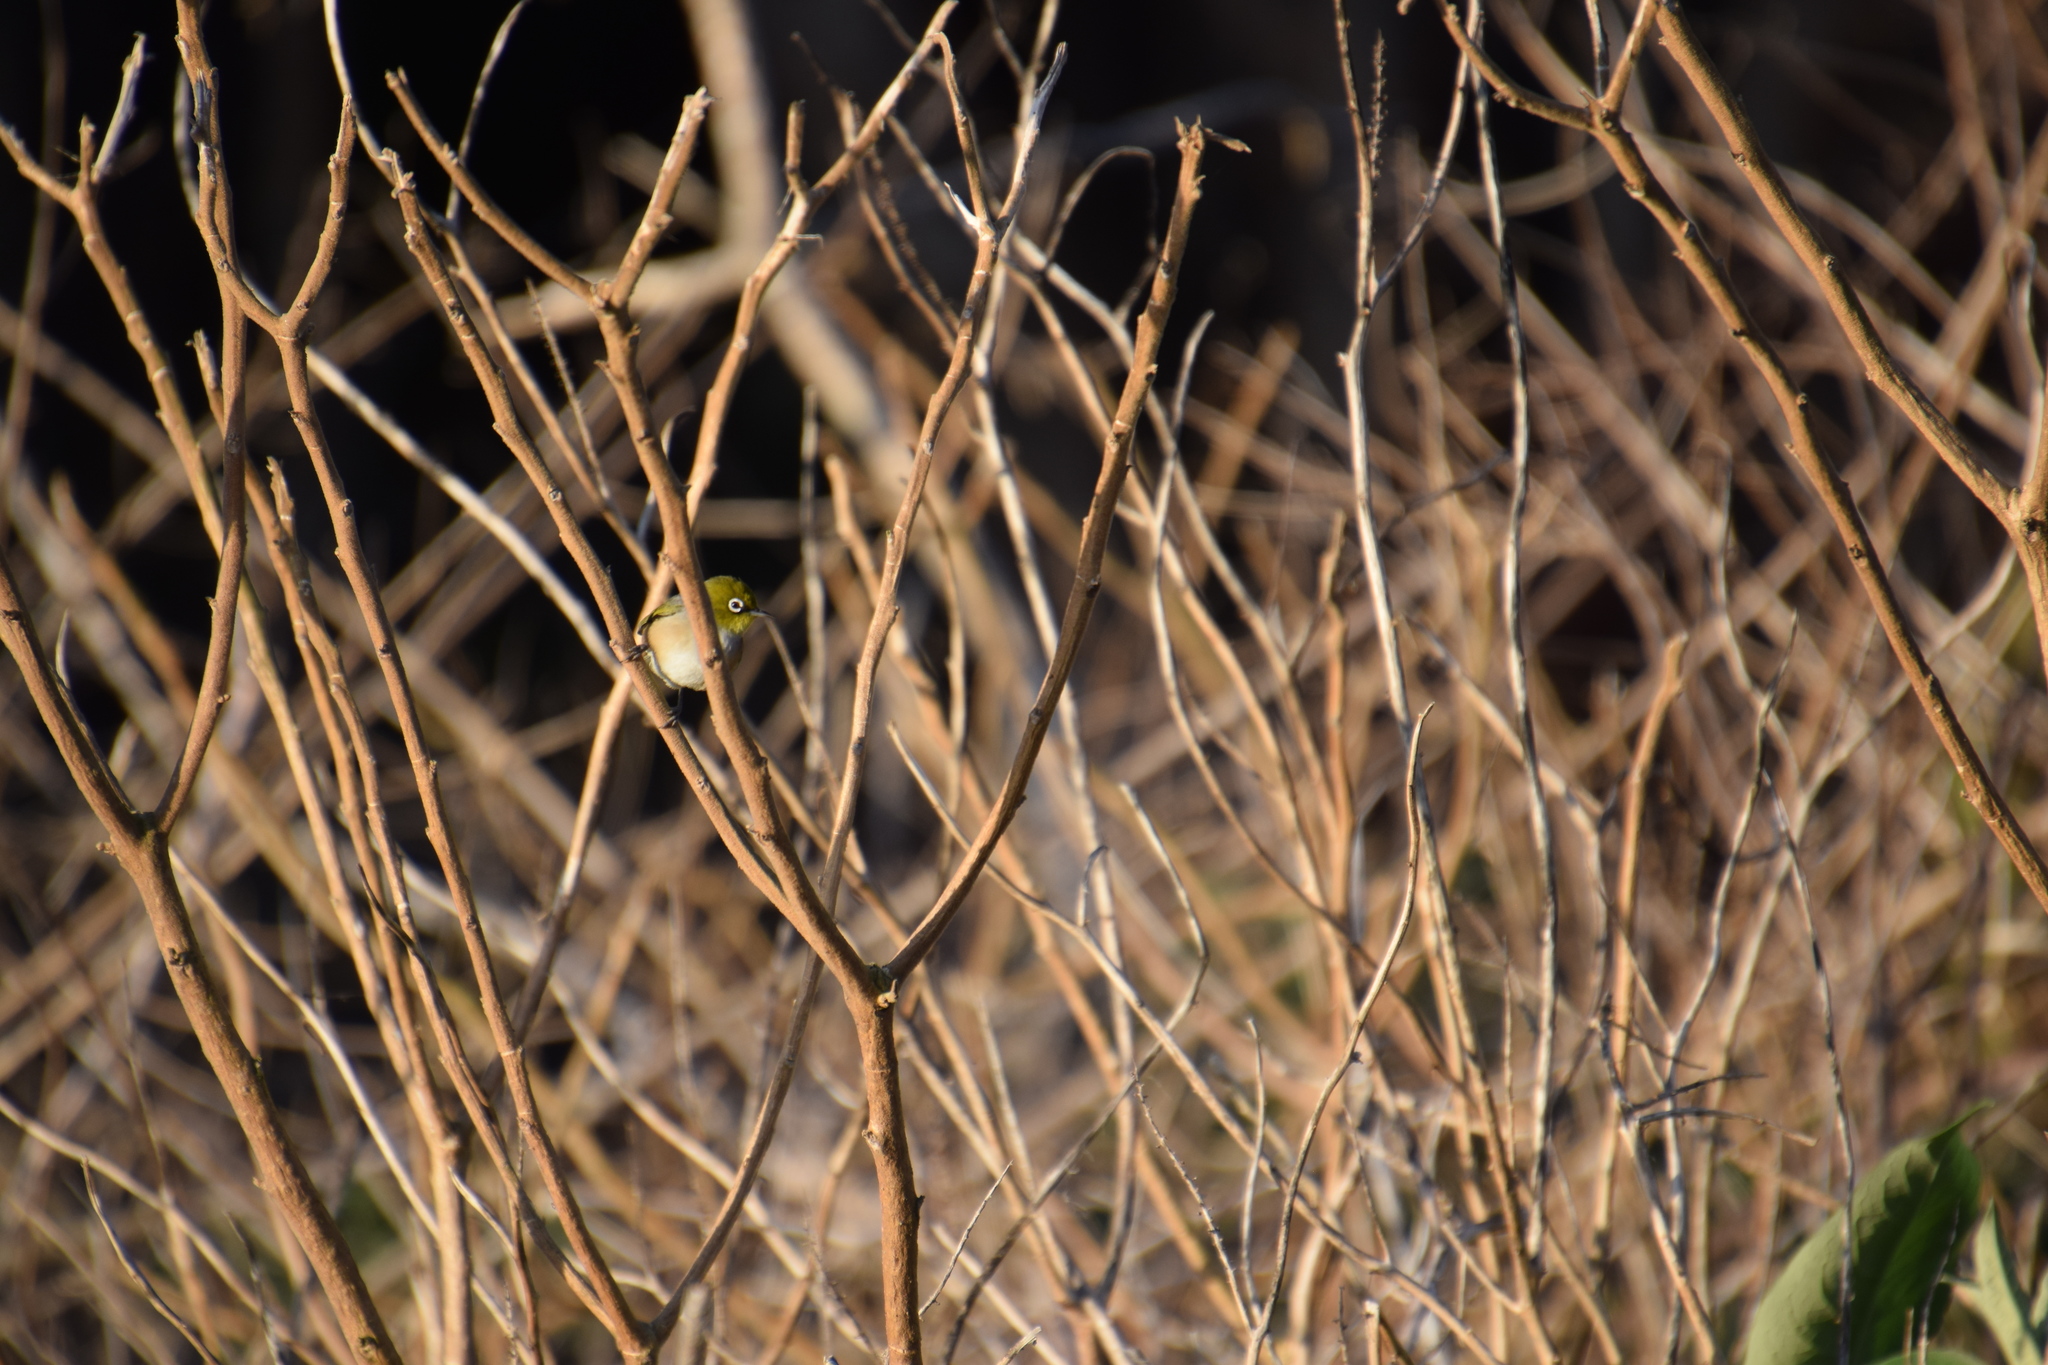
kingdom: Animalia
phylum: Chordata
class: Aves
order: Passeriformes
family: Zosteropidae
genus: Zosterops
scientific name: Zosterops lateralis
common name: Silvereye
